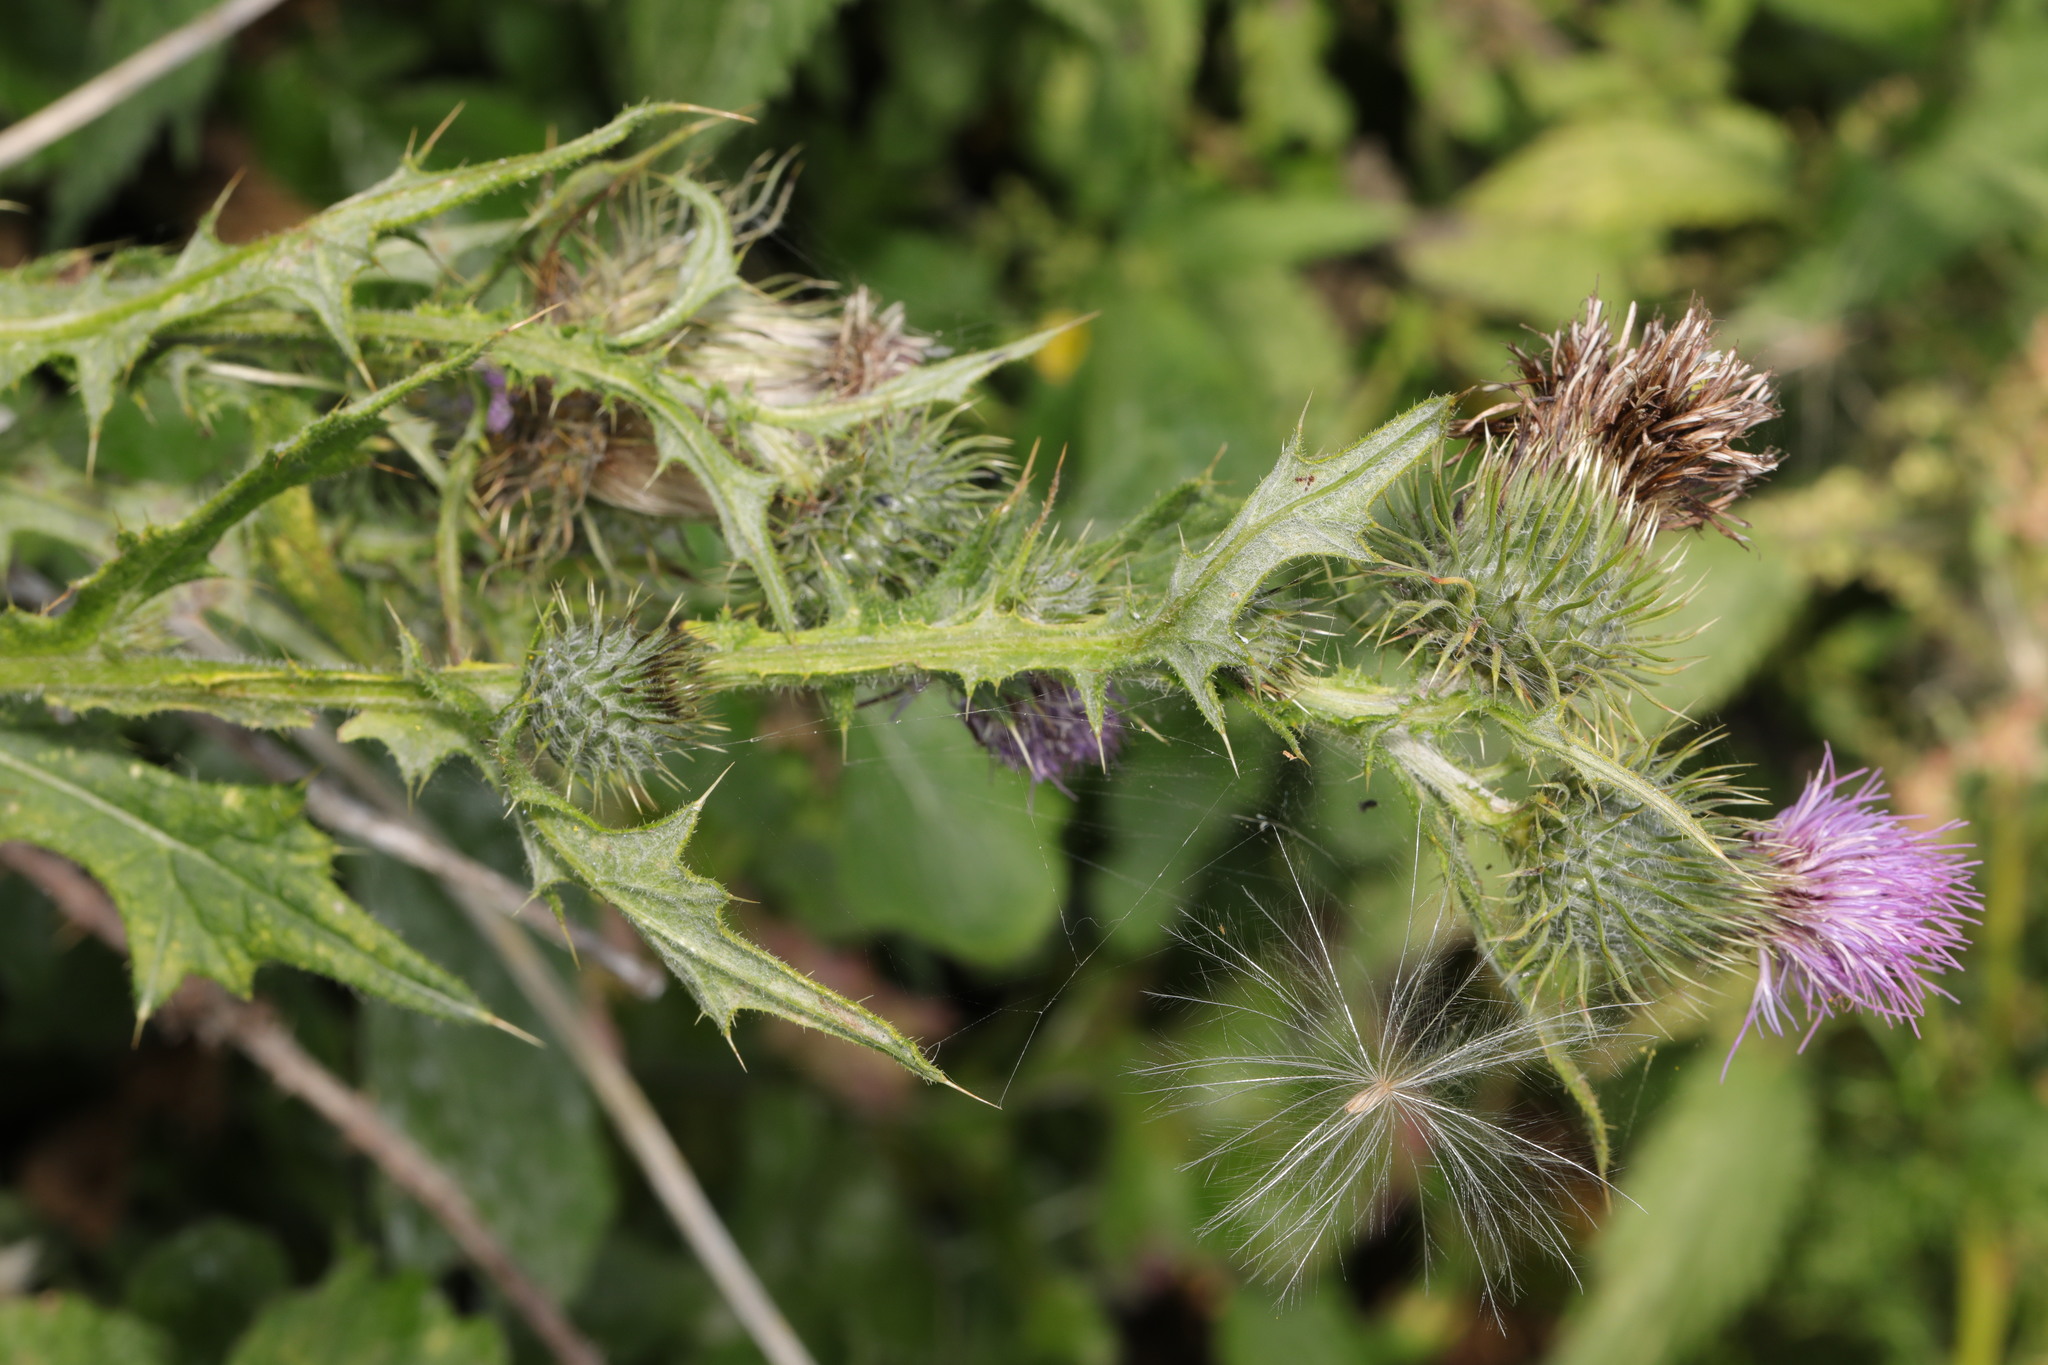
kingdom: Plantae
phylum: Tracheophyta
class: Magnoliopsida
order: Asterales
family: Asteraceae
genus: Cirsium
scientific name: Cirsium vulgare
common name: Bull thistle
